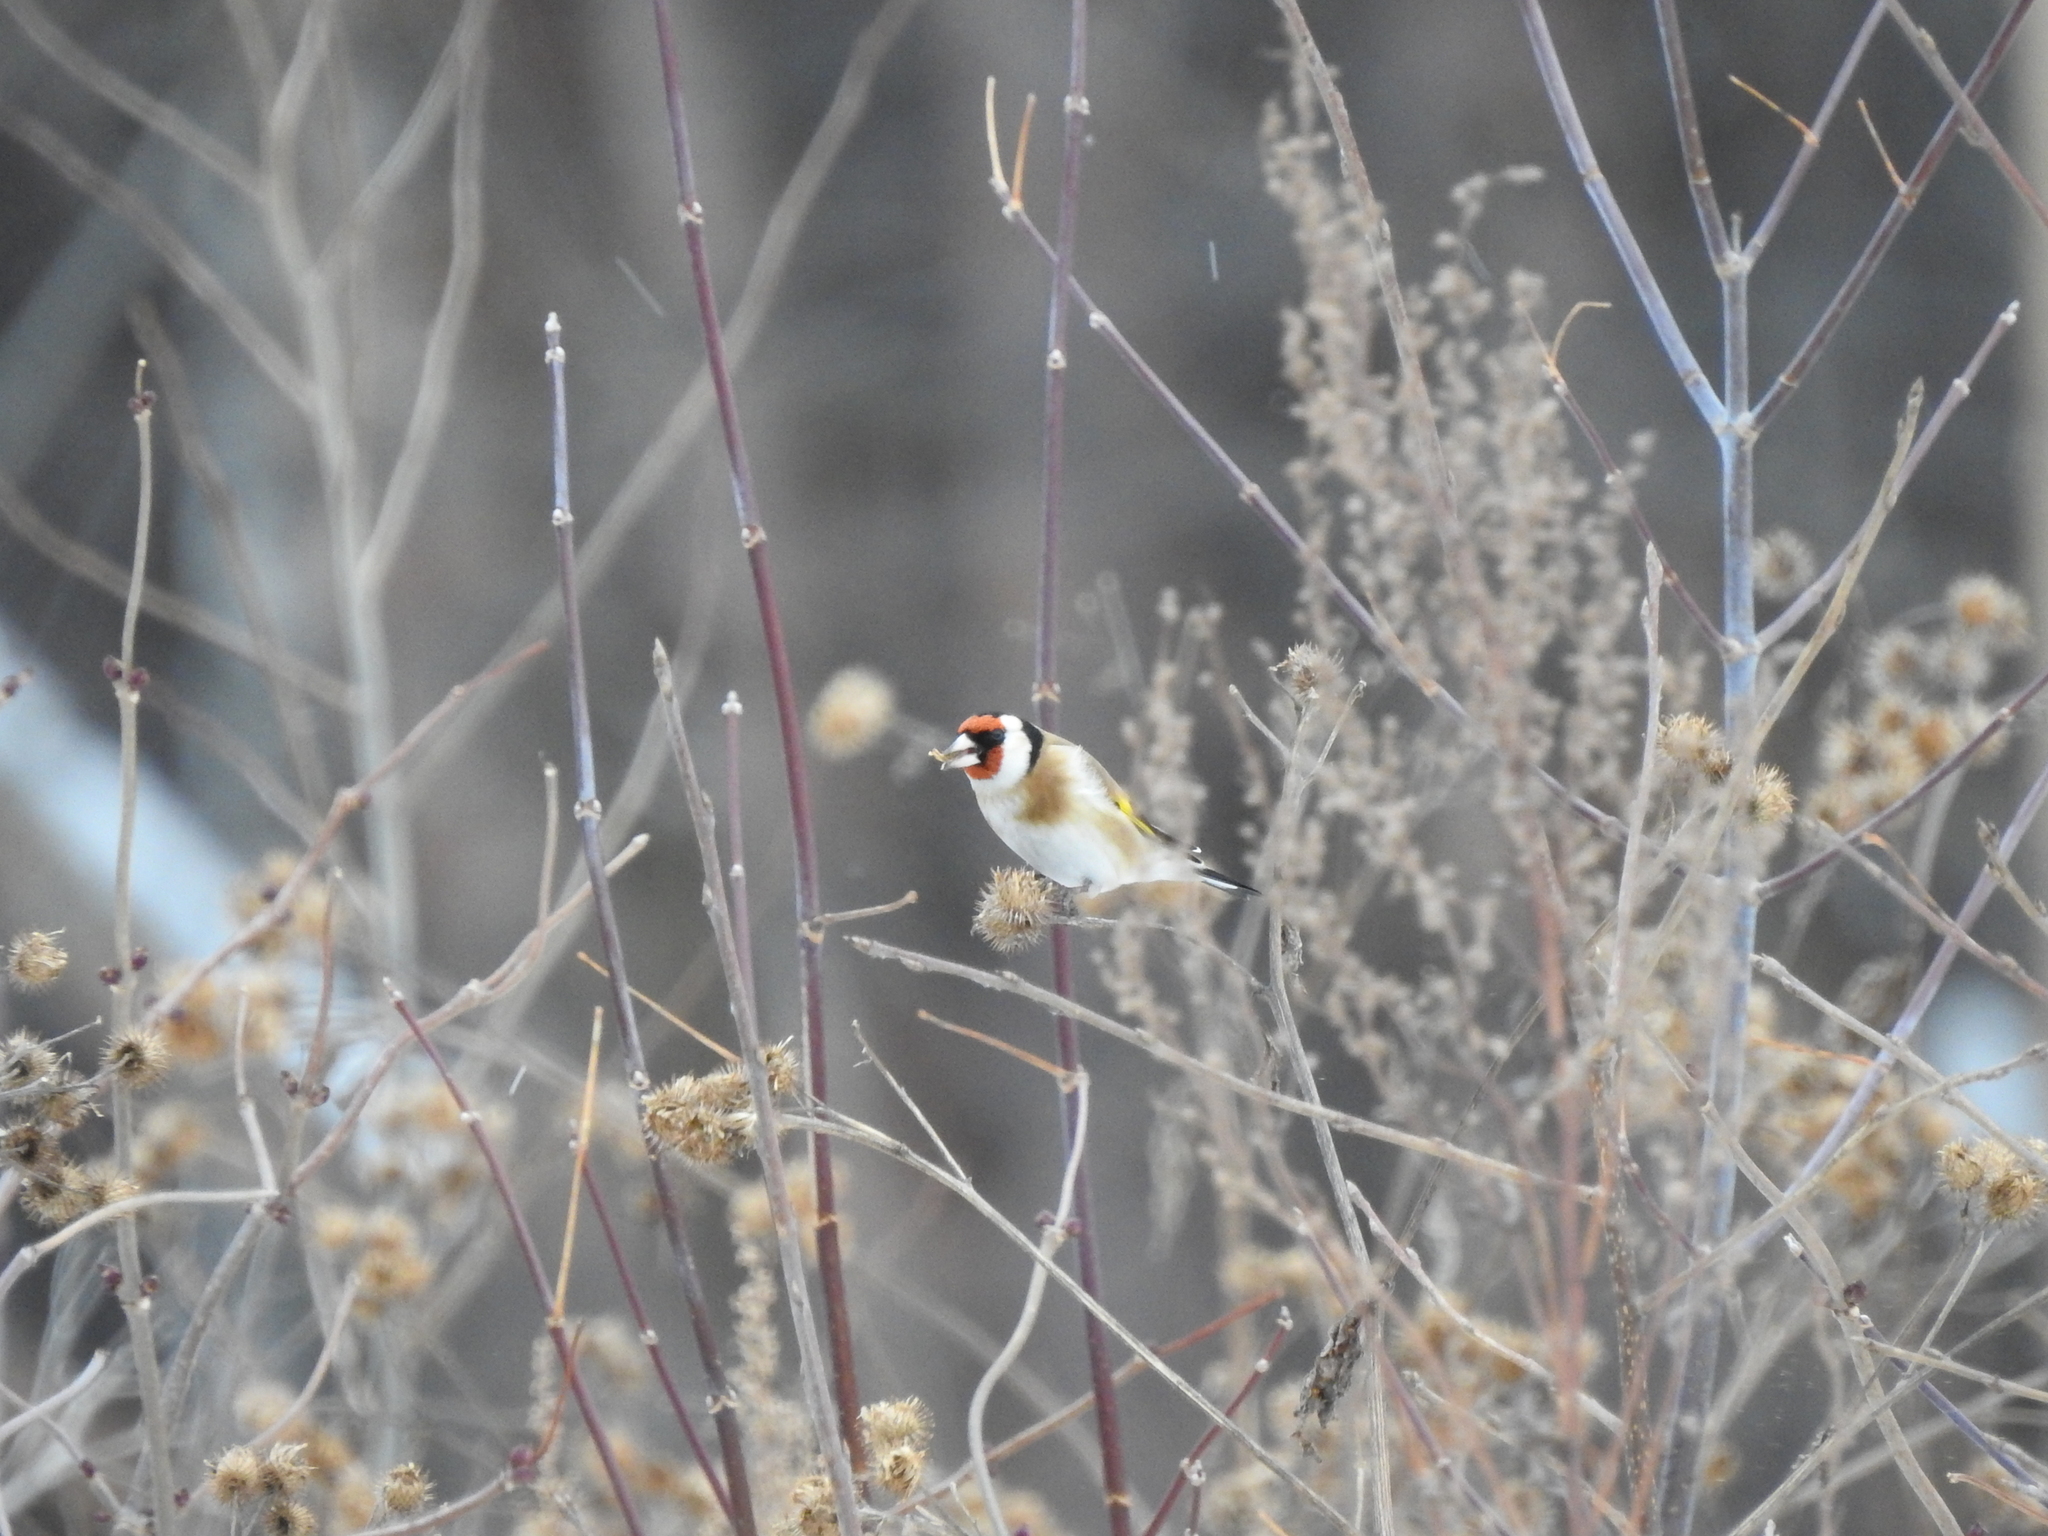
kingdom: Animalia
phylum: Chordata
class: Aves
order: Passeriformes
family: Fringillidae
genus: Carduelis
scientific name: Carduelis carduelis
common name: European goldfinch
